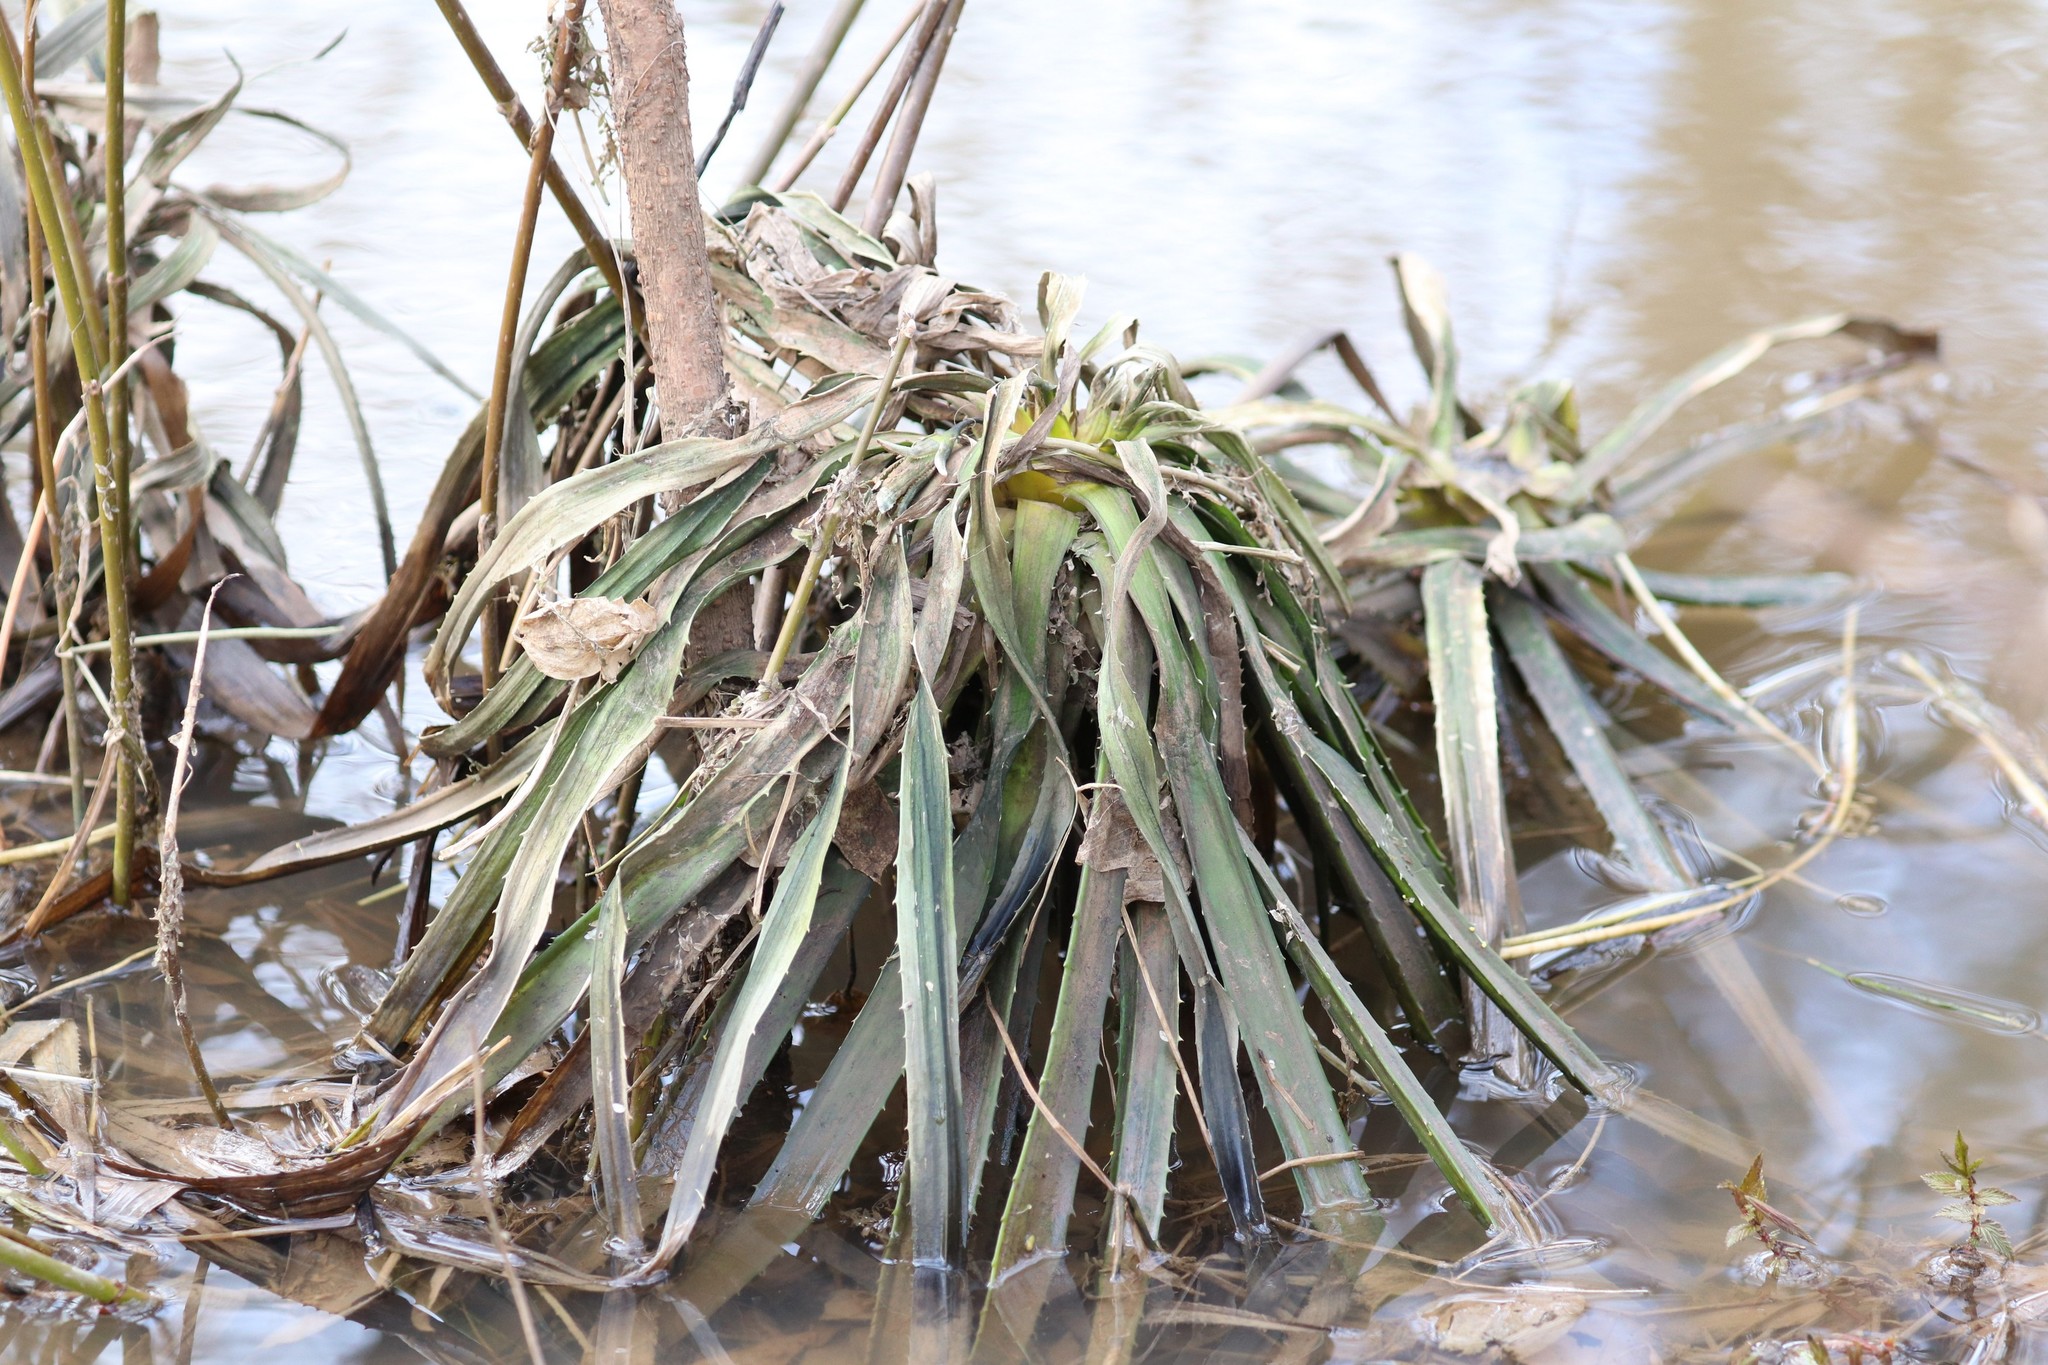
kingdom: Plantae
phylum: Tracheophyta
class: Liliopsida
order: Alismatales
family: Hydrocharitaceae
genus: Stratiotes
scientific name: Stratiotes aloides
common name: Water-soldier
